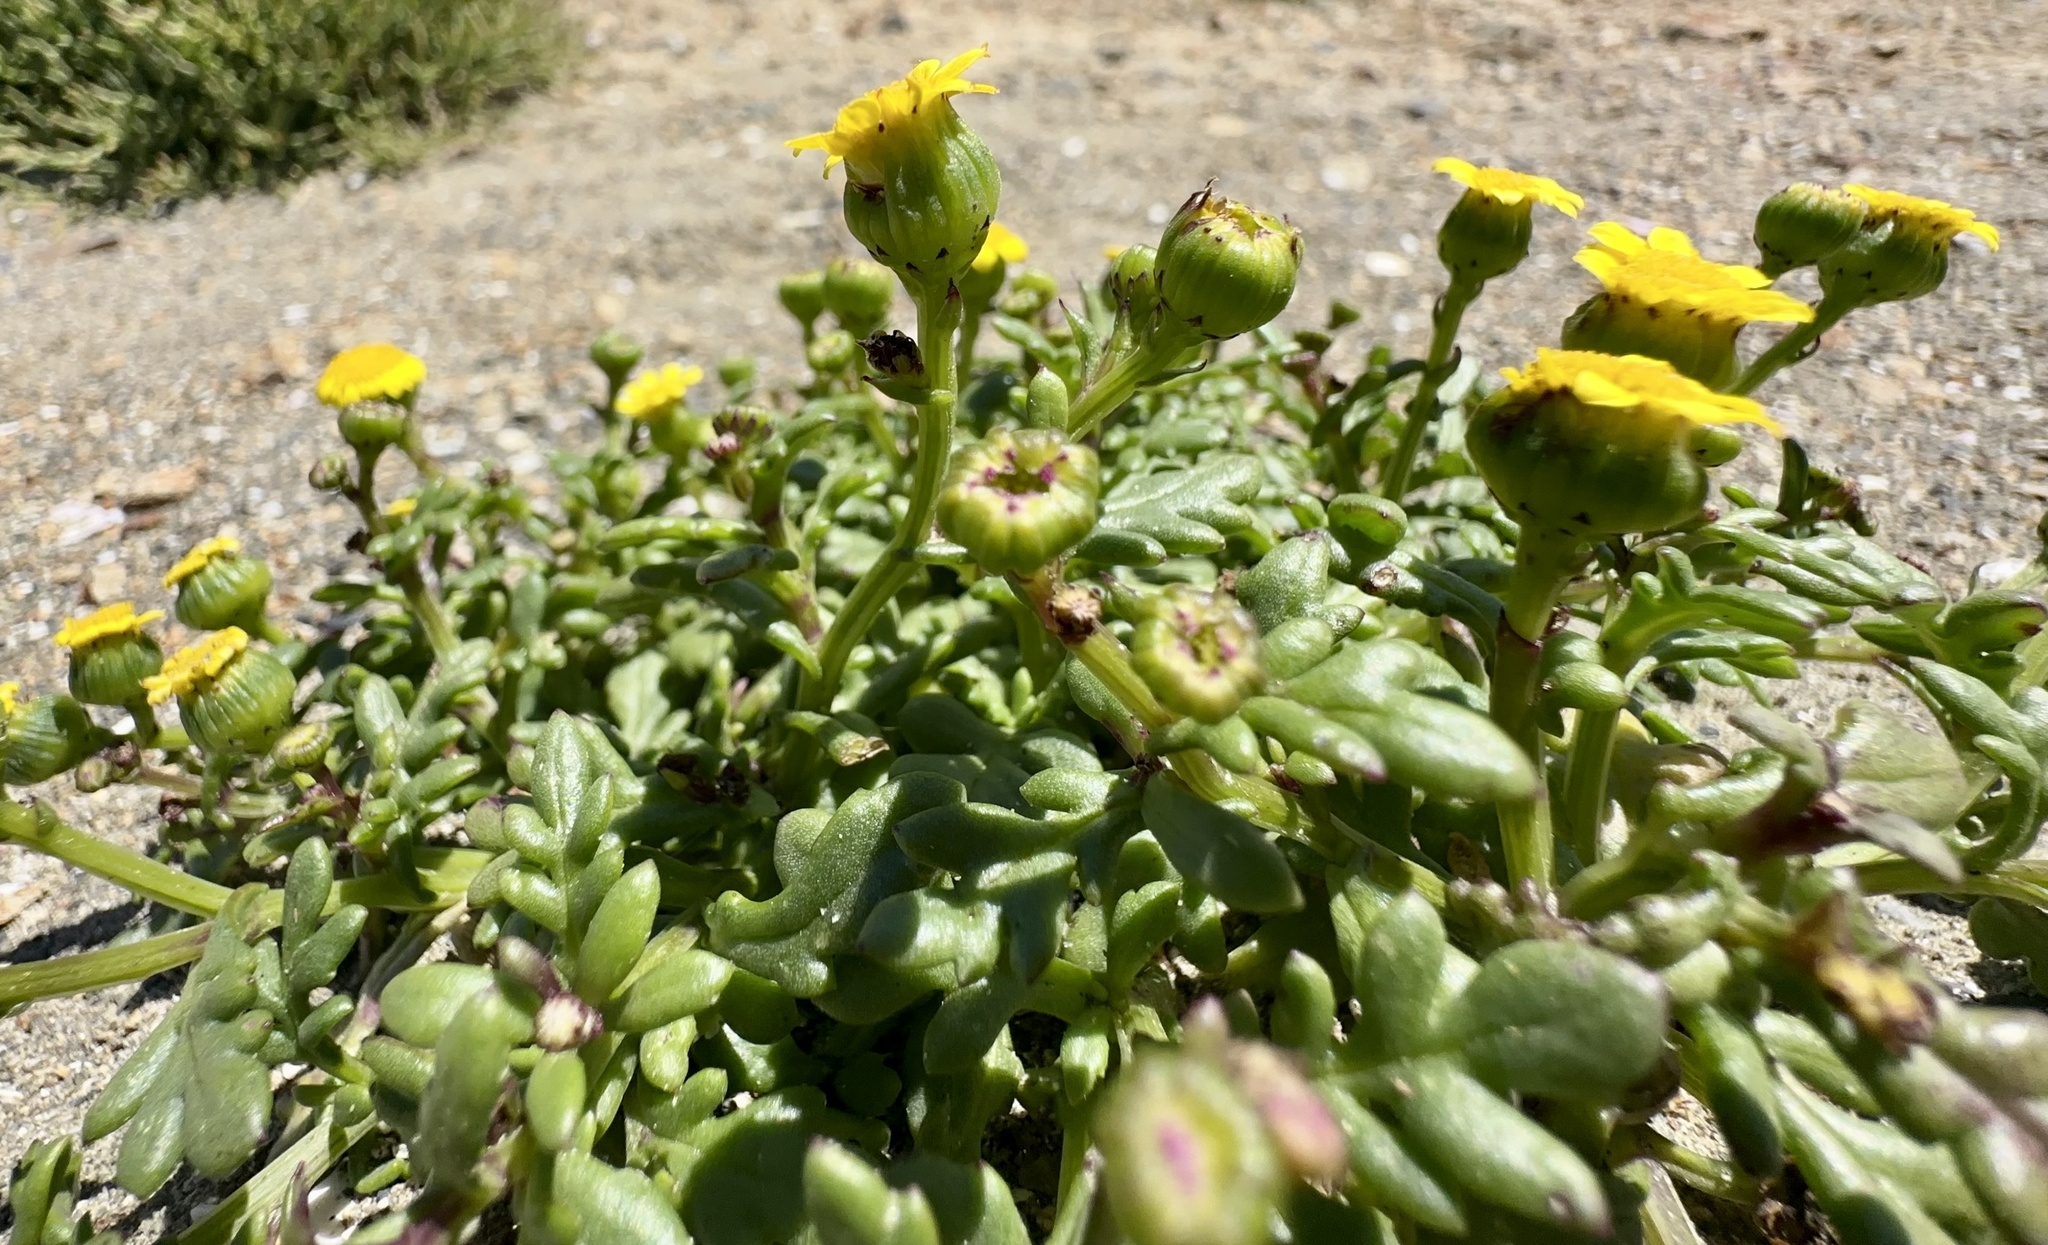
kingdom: Plantae
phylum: Tracheophyta
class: Magnoliopsida
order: Asterales
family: Asteraceae
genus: Senecio
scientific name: Senecio lautus
